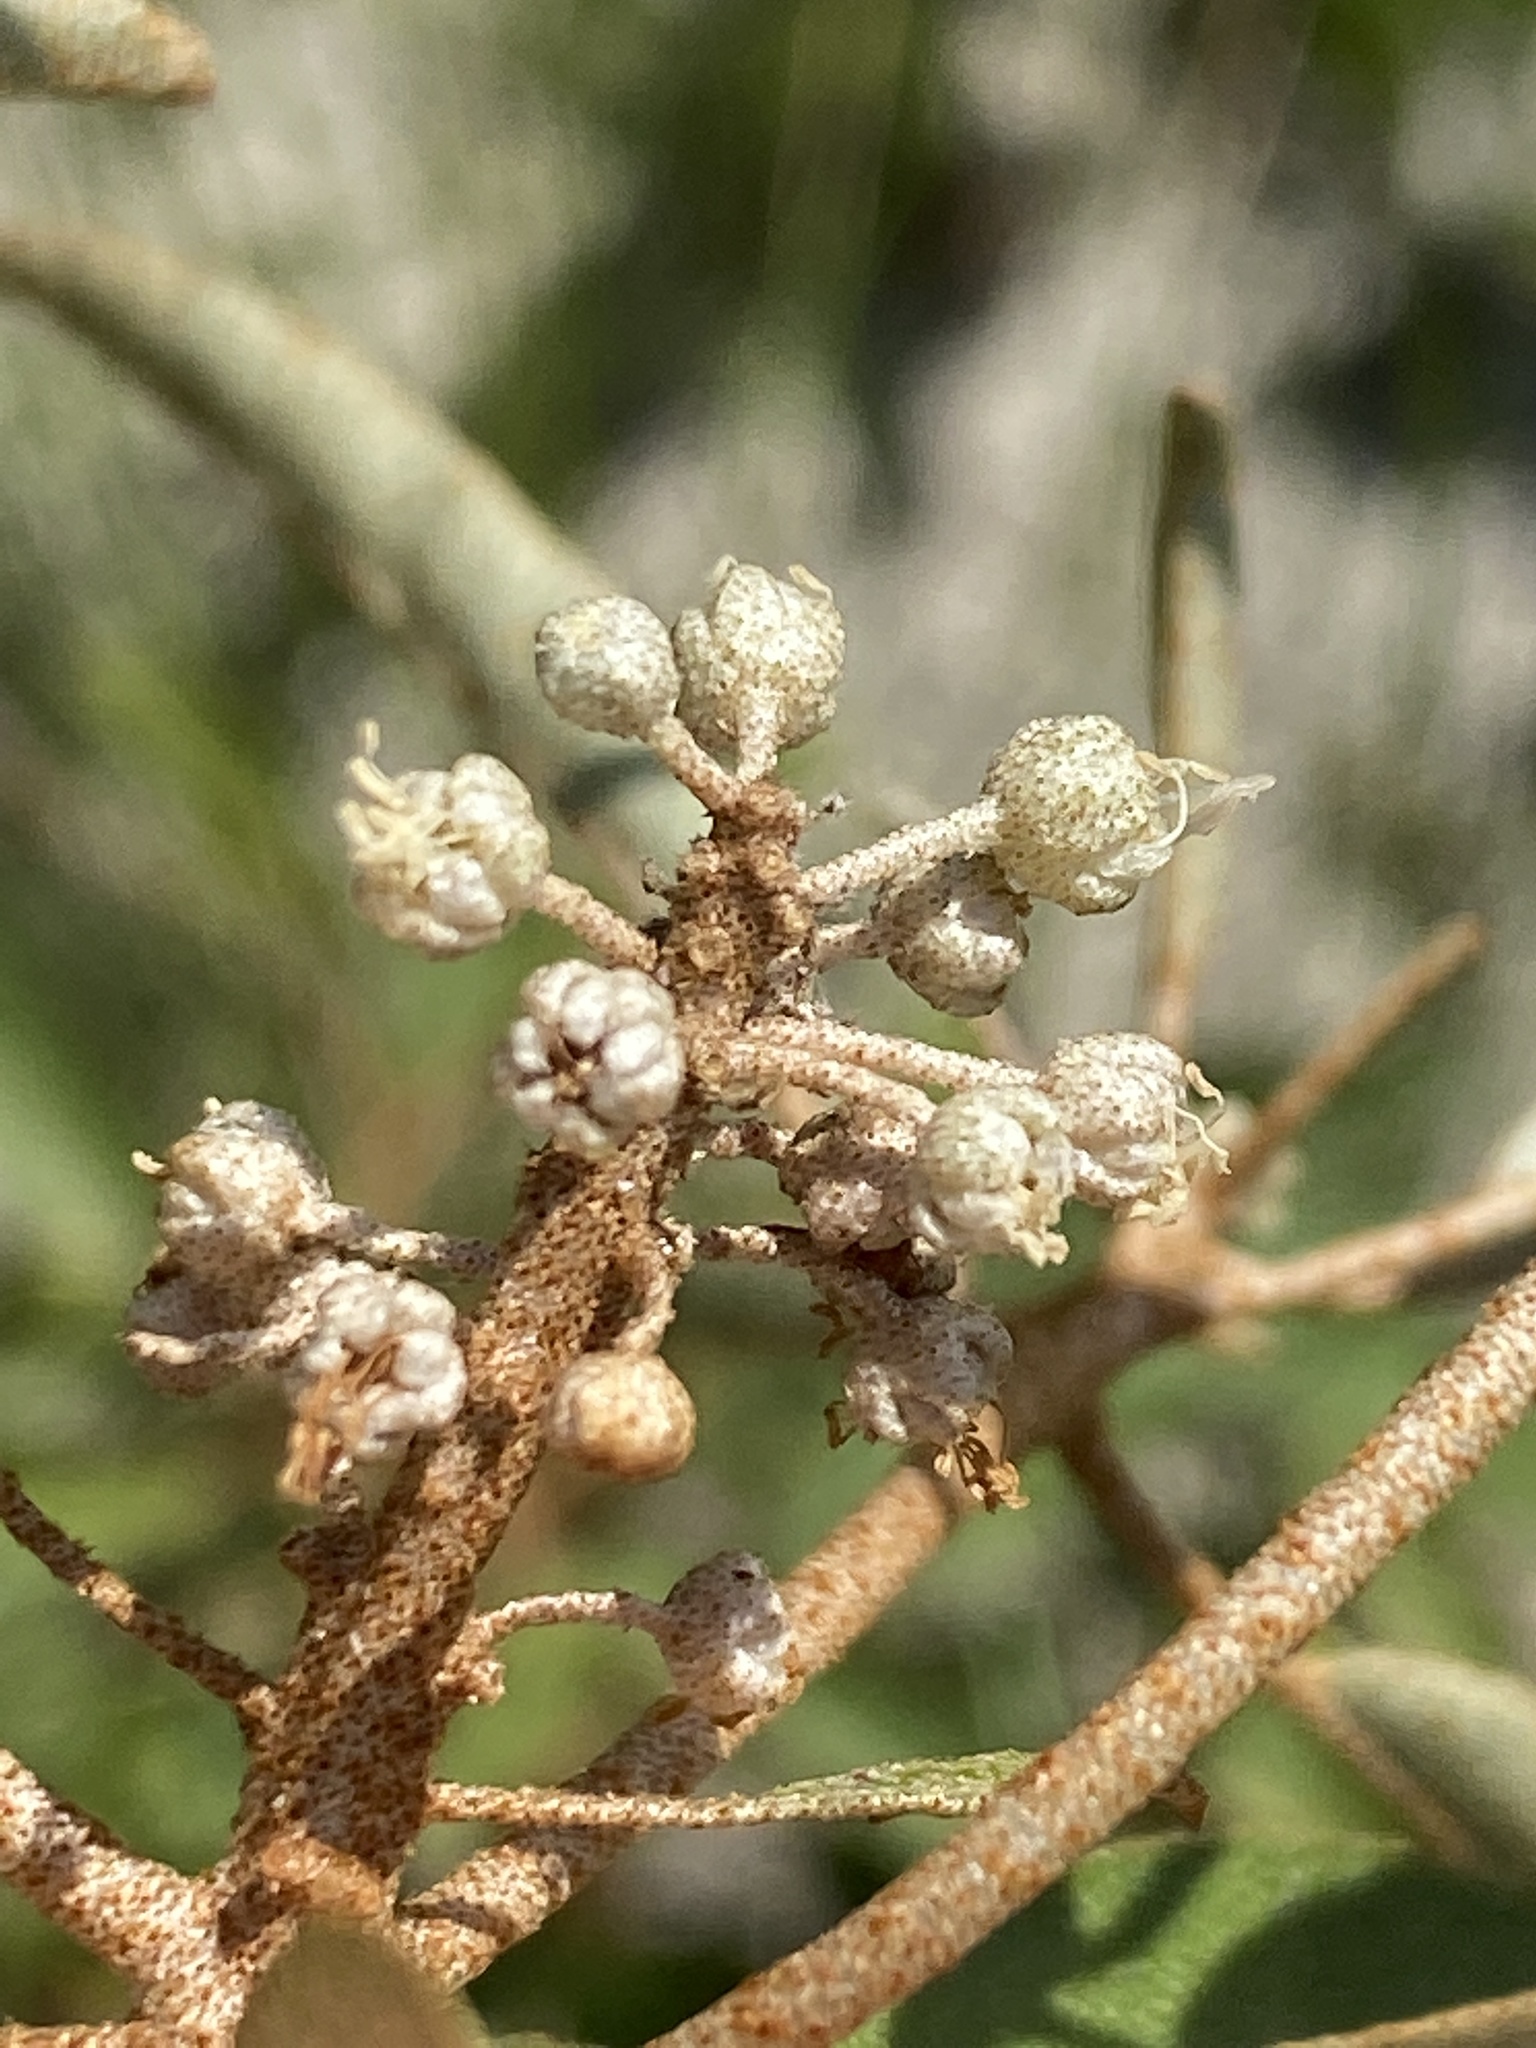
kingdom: Plantae
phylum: Tracheophyta
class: Magnoliopsida
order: Malpighiales
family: Euphorbiaceae
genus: Croton
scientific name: Croton argyranthemus
